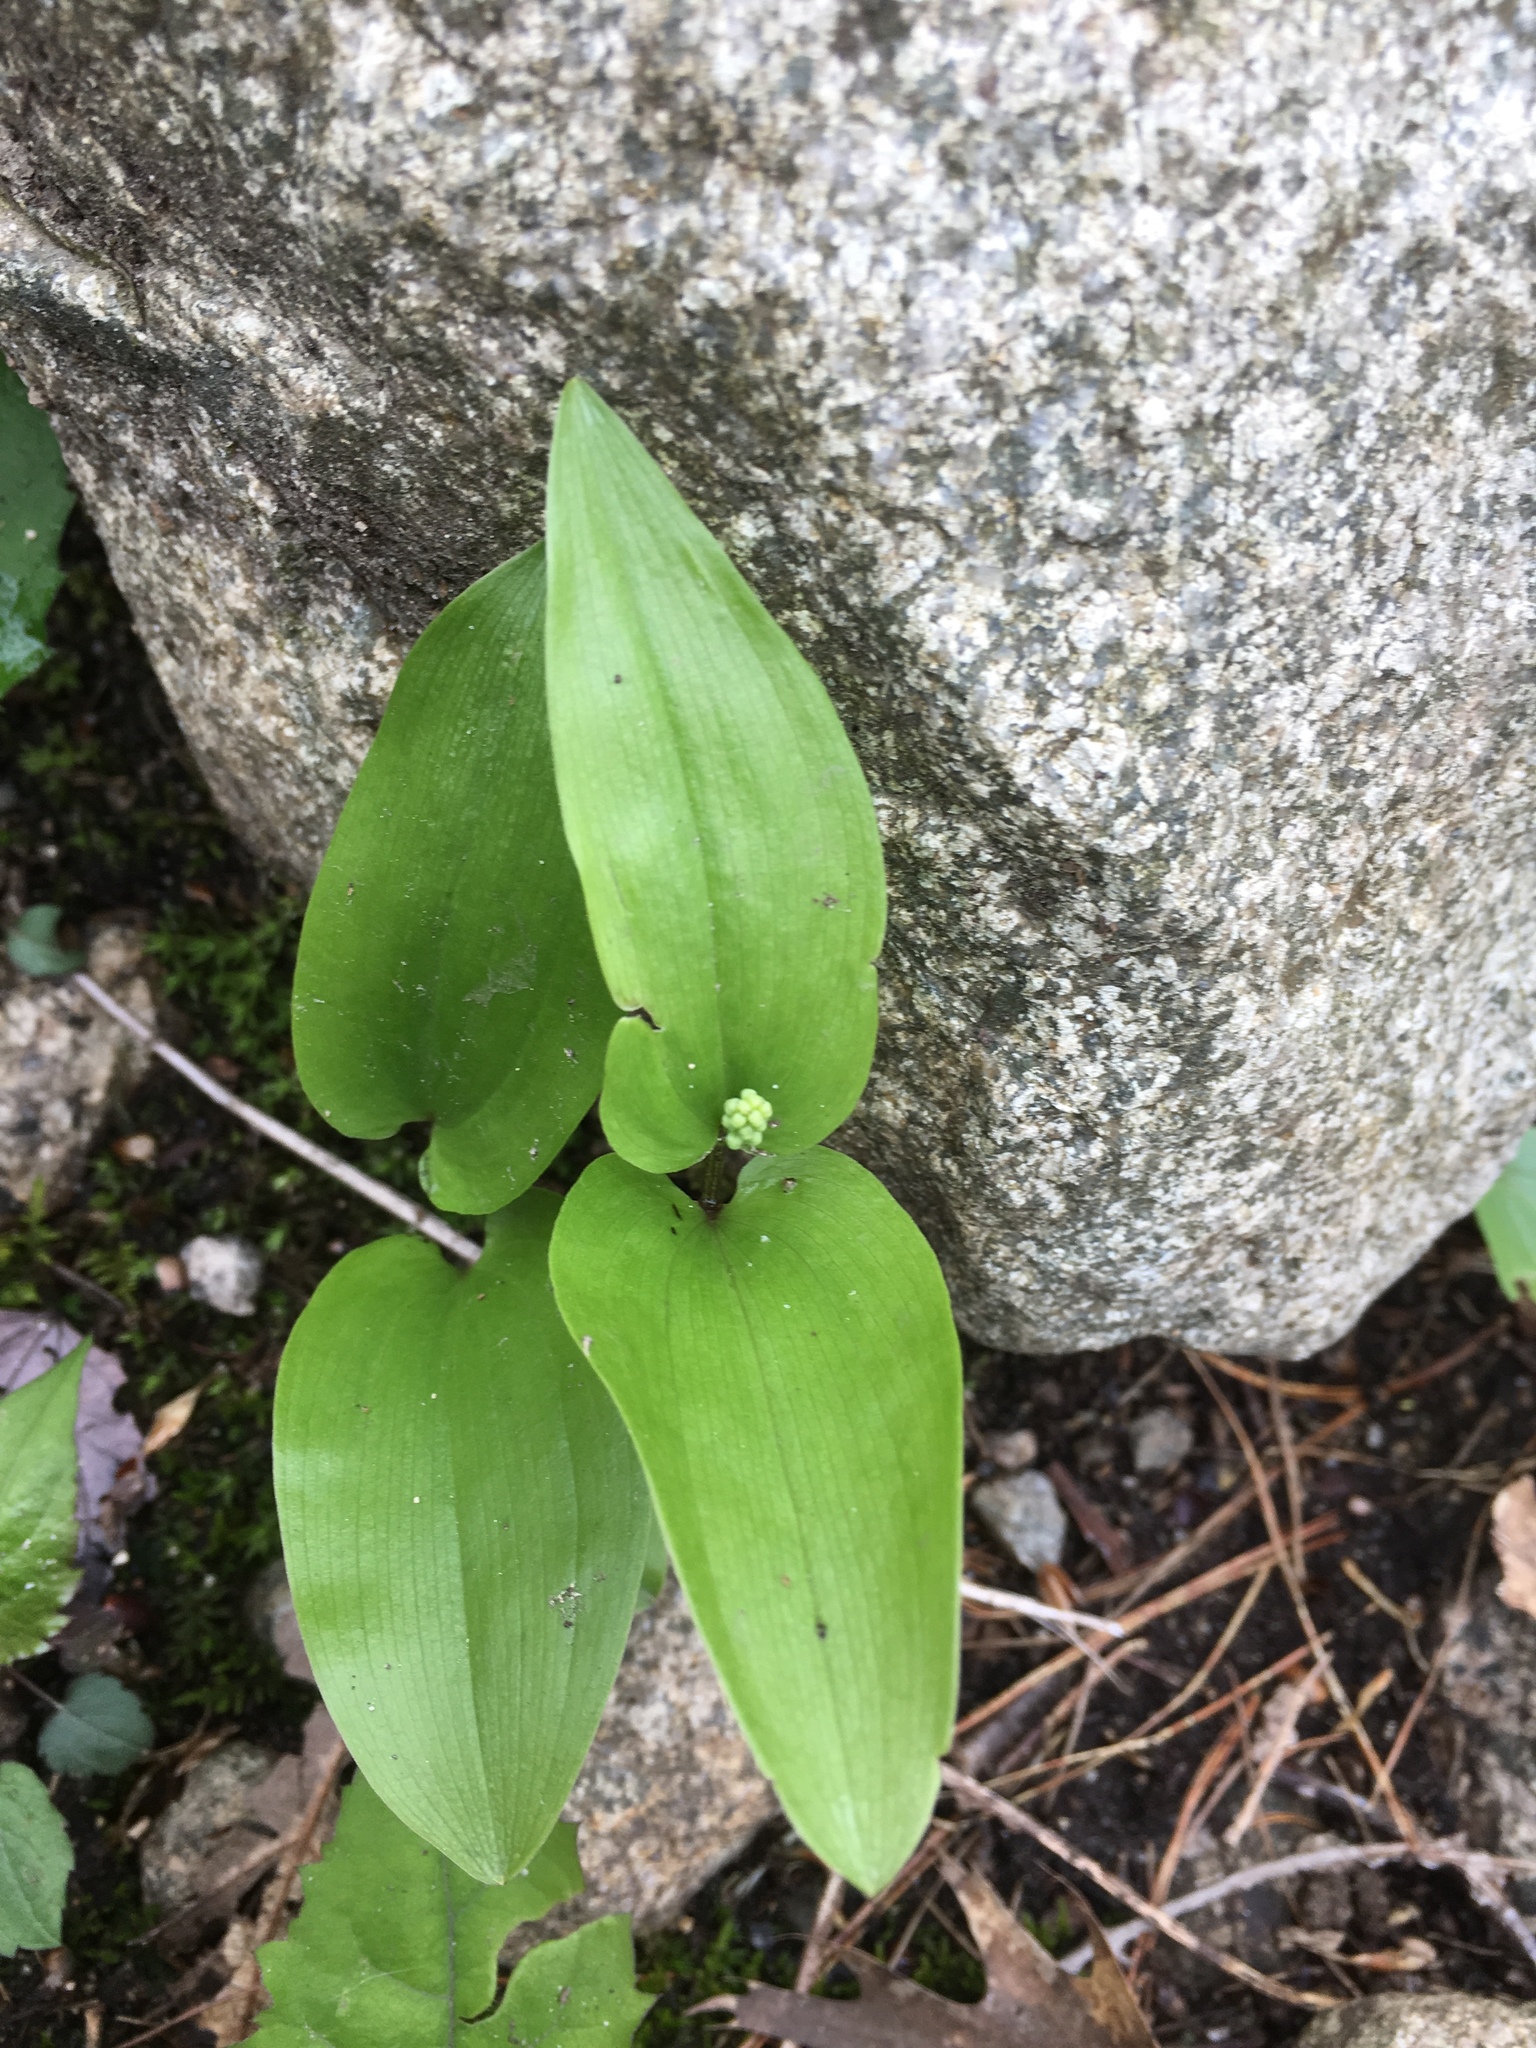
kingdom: Plantae
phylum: Tracheophyta
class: Liliopsida
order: Asparagales
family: Asparagaceae
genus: Maianthemum
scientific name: Maianthemum canadense
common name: False lily-of-the-valley
